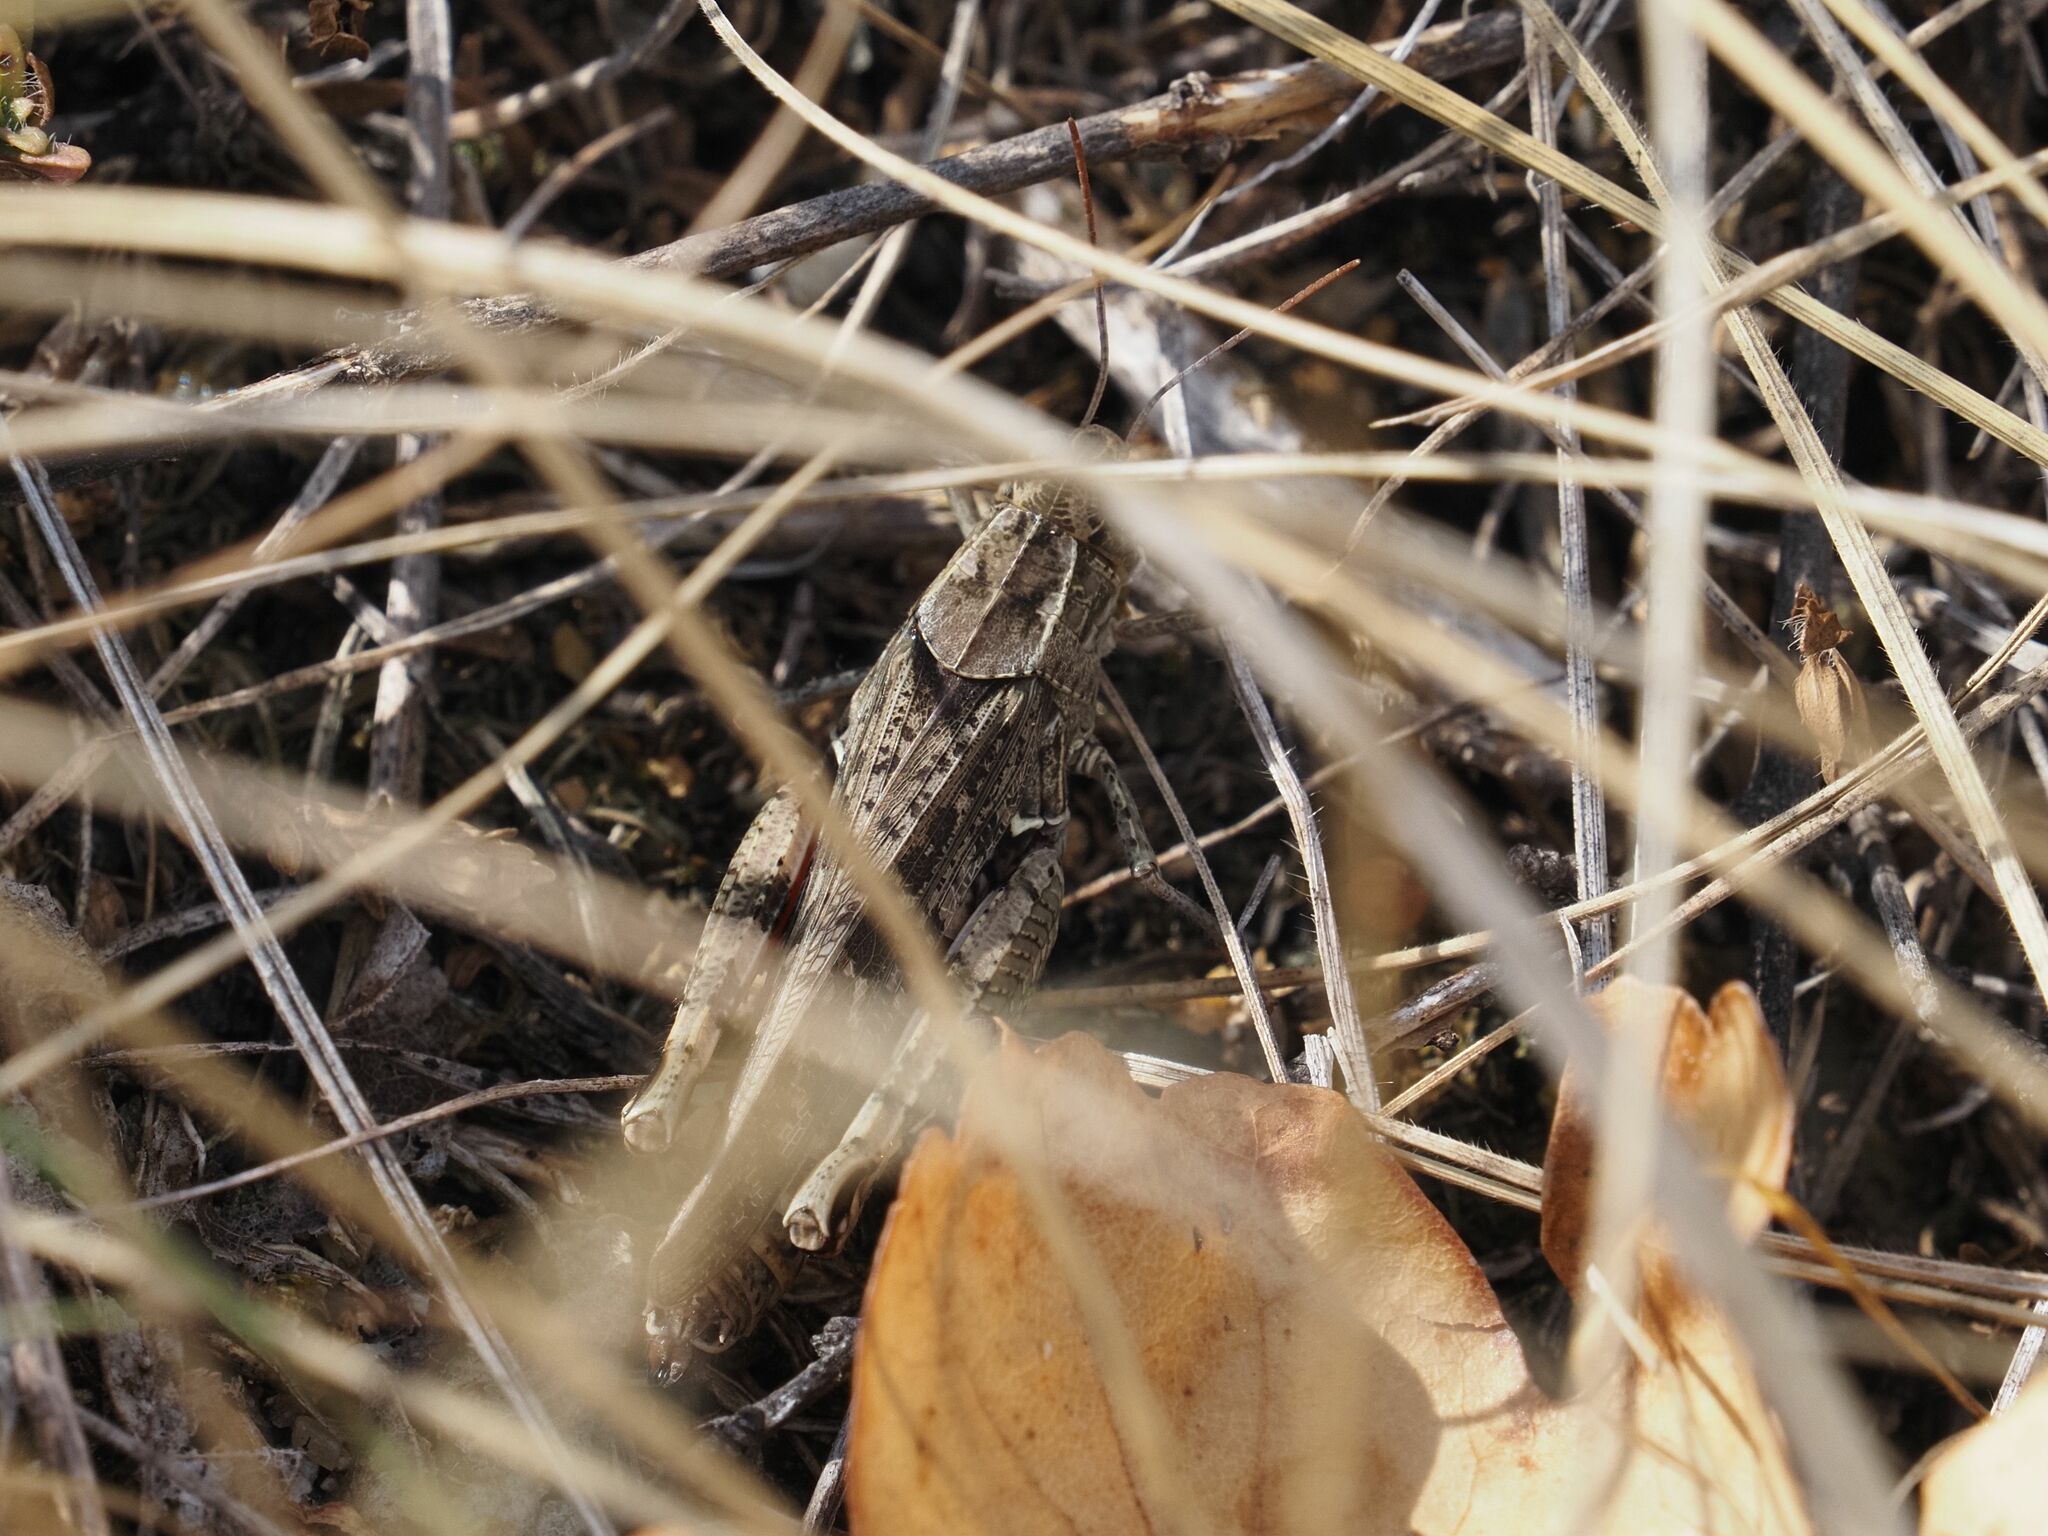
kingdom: Animalia
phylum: Arthropoda
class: Insecta
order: Orthoptera
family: Acrididae
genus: Calliptamus
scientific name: Calliptamus italicus
